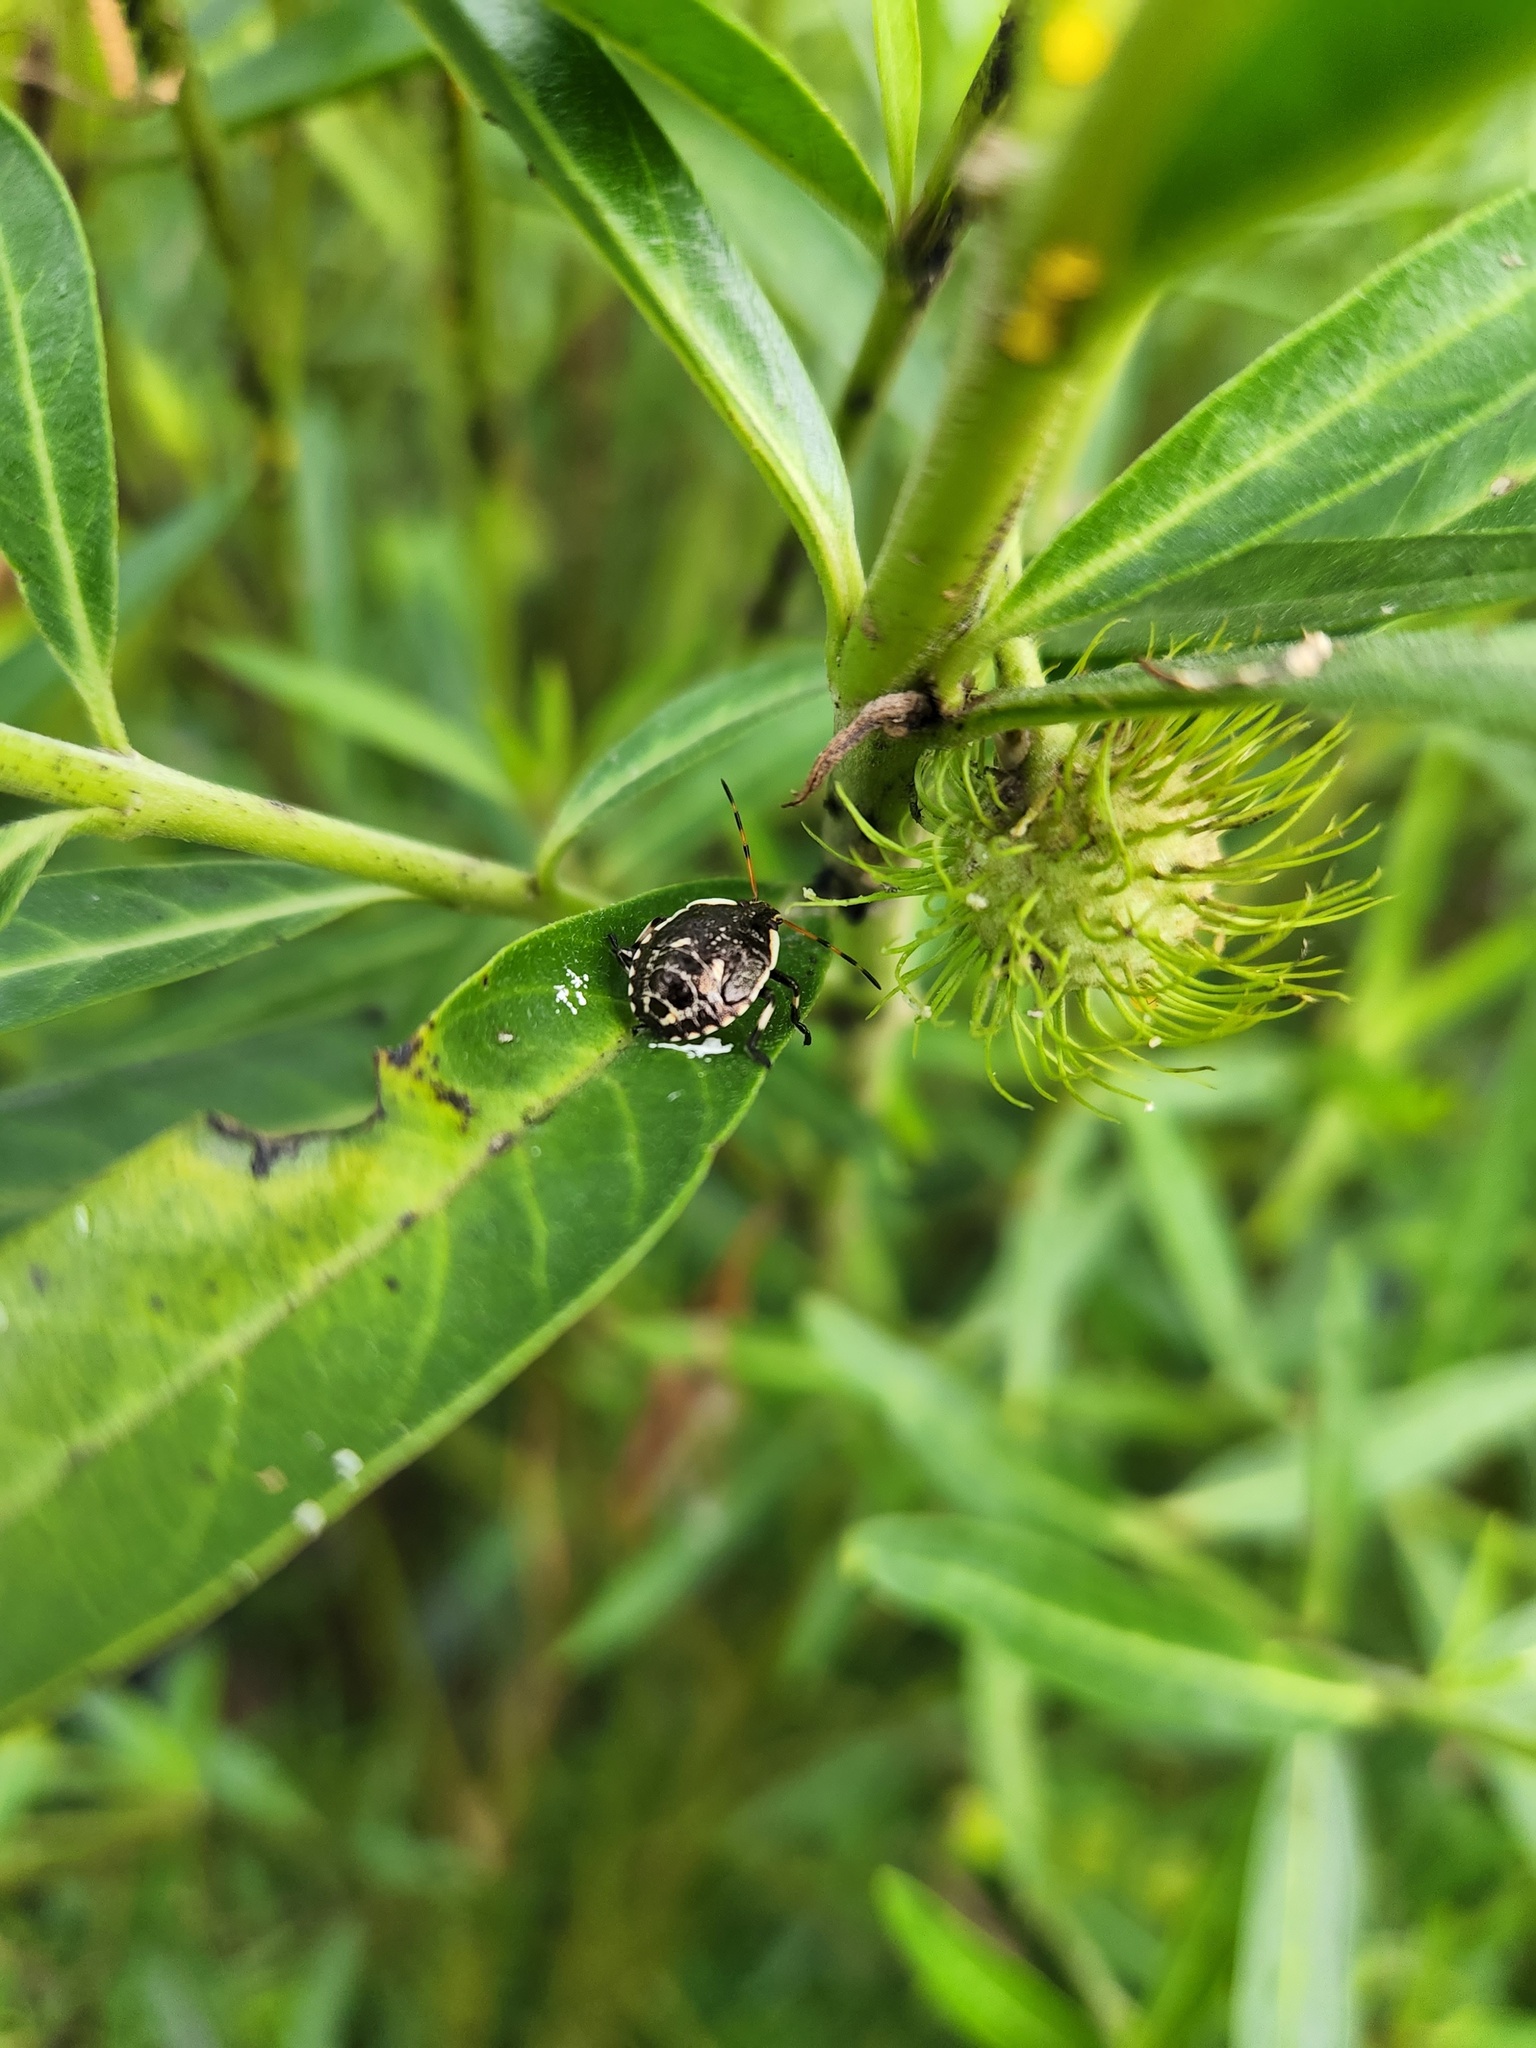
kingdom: Animalia
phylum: Arthropoda
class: Insecta
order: Hemiptera
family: Pentatomidae
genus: Cermatulus
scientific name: Cermatulus nasalis
